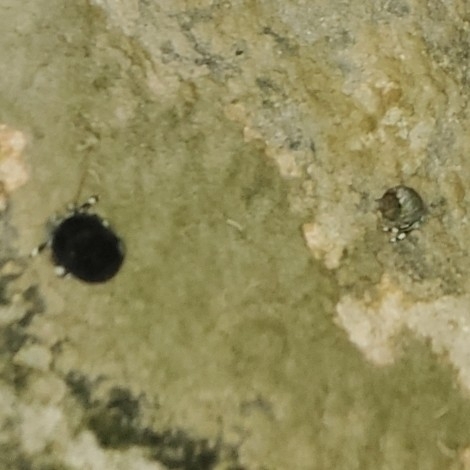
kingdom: Animalia
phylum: Arthropoda
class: Malacostraca
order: Decapoda
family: Diogenidae
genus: Calcinus
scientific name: Calcinus seurati
